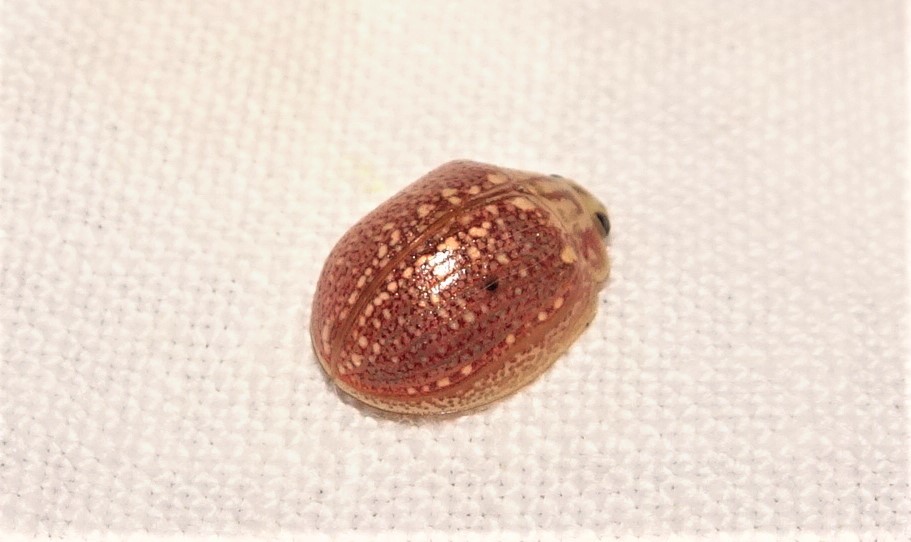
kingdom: Animalia
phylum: Arthropoda
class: Insecta
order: Coleoptera
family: Chrysomelidae
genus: Paropsisterna
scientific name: Paropsisterna decolorata
